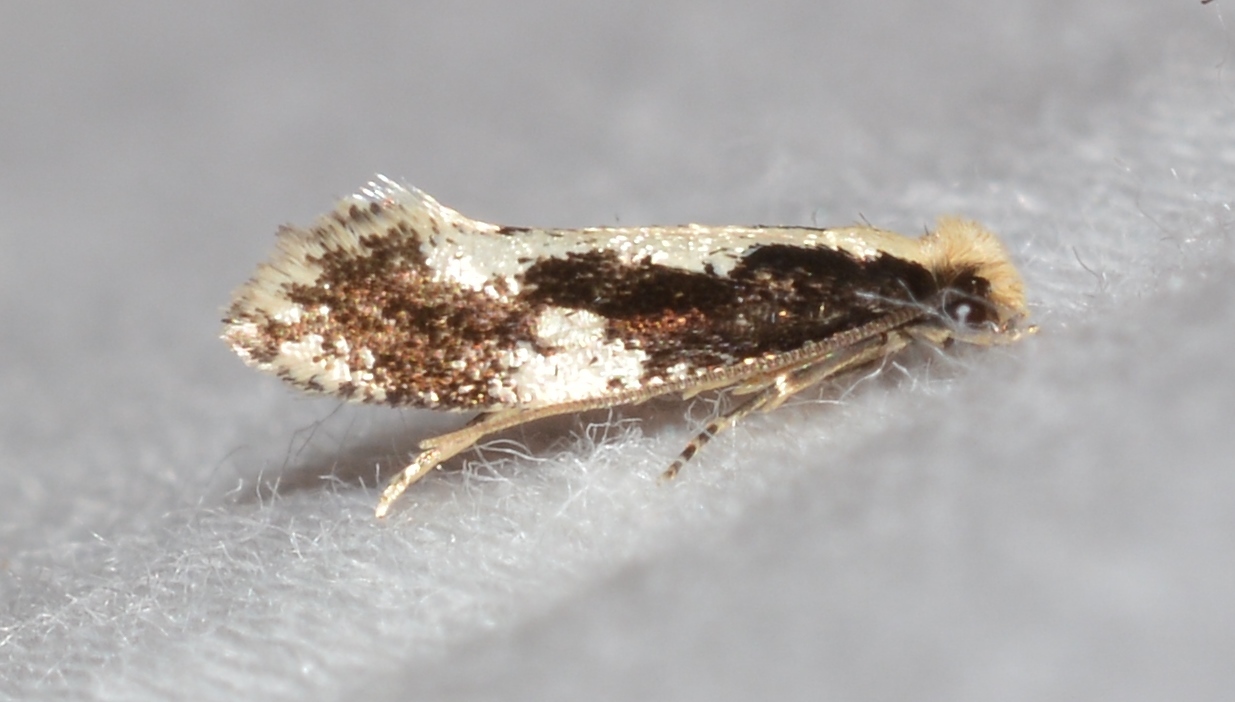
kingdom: Animalia
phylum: Arthropoda
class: Insecta
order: Lepidoptera
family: Tineidae
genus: Monopis
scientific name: Monopis dorsistrigella
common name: Skunkback monopis moth
